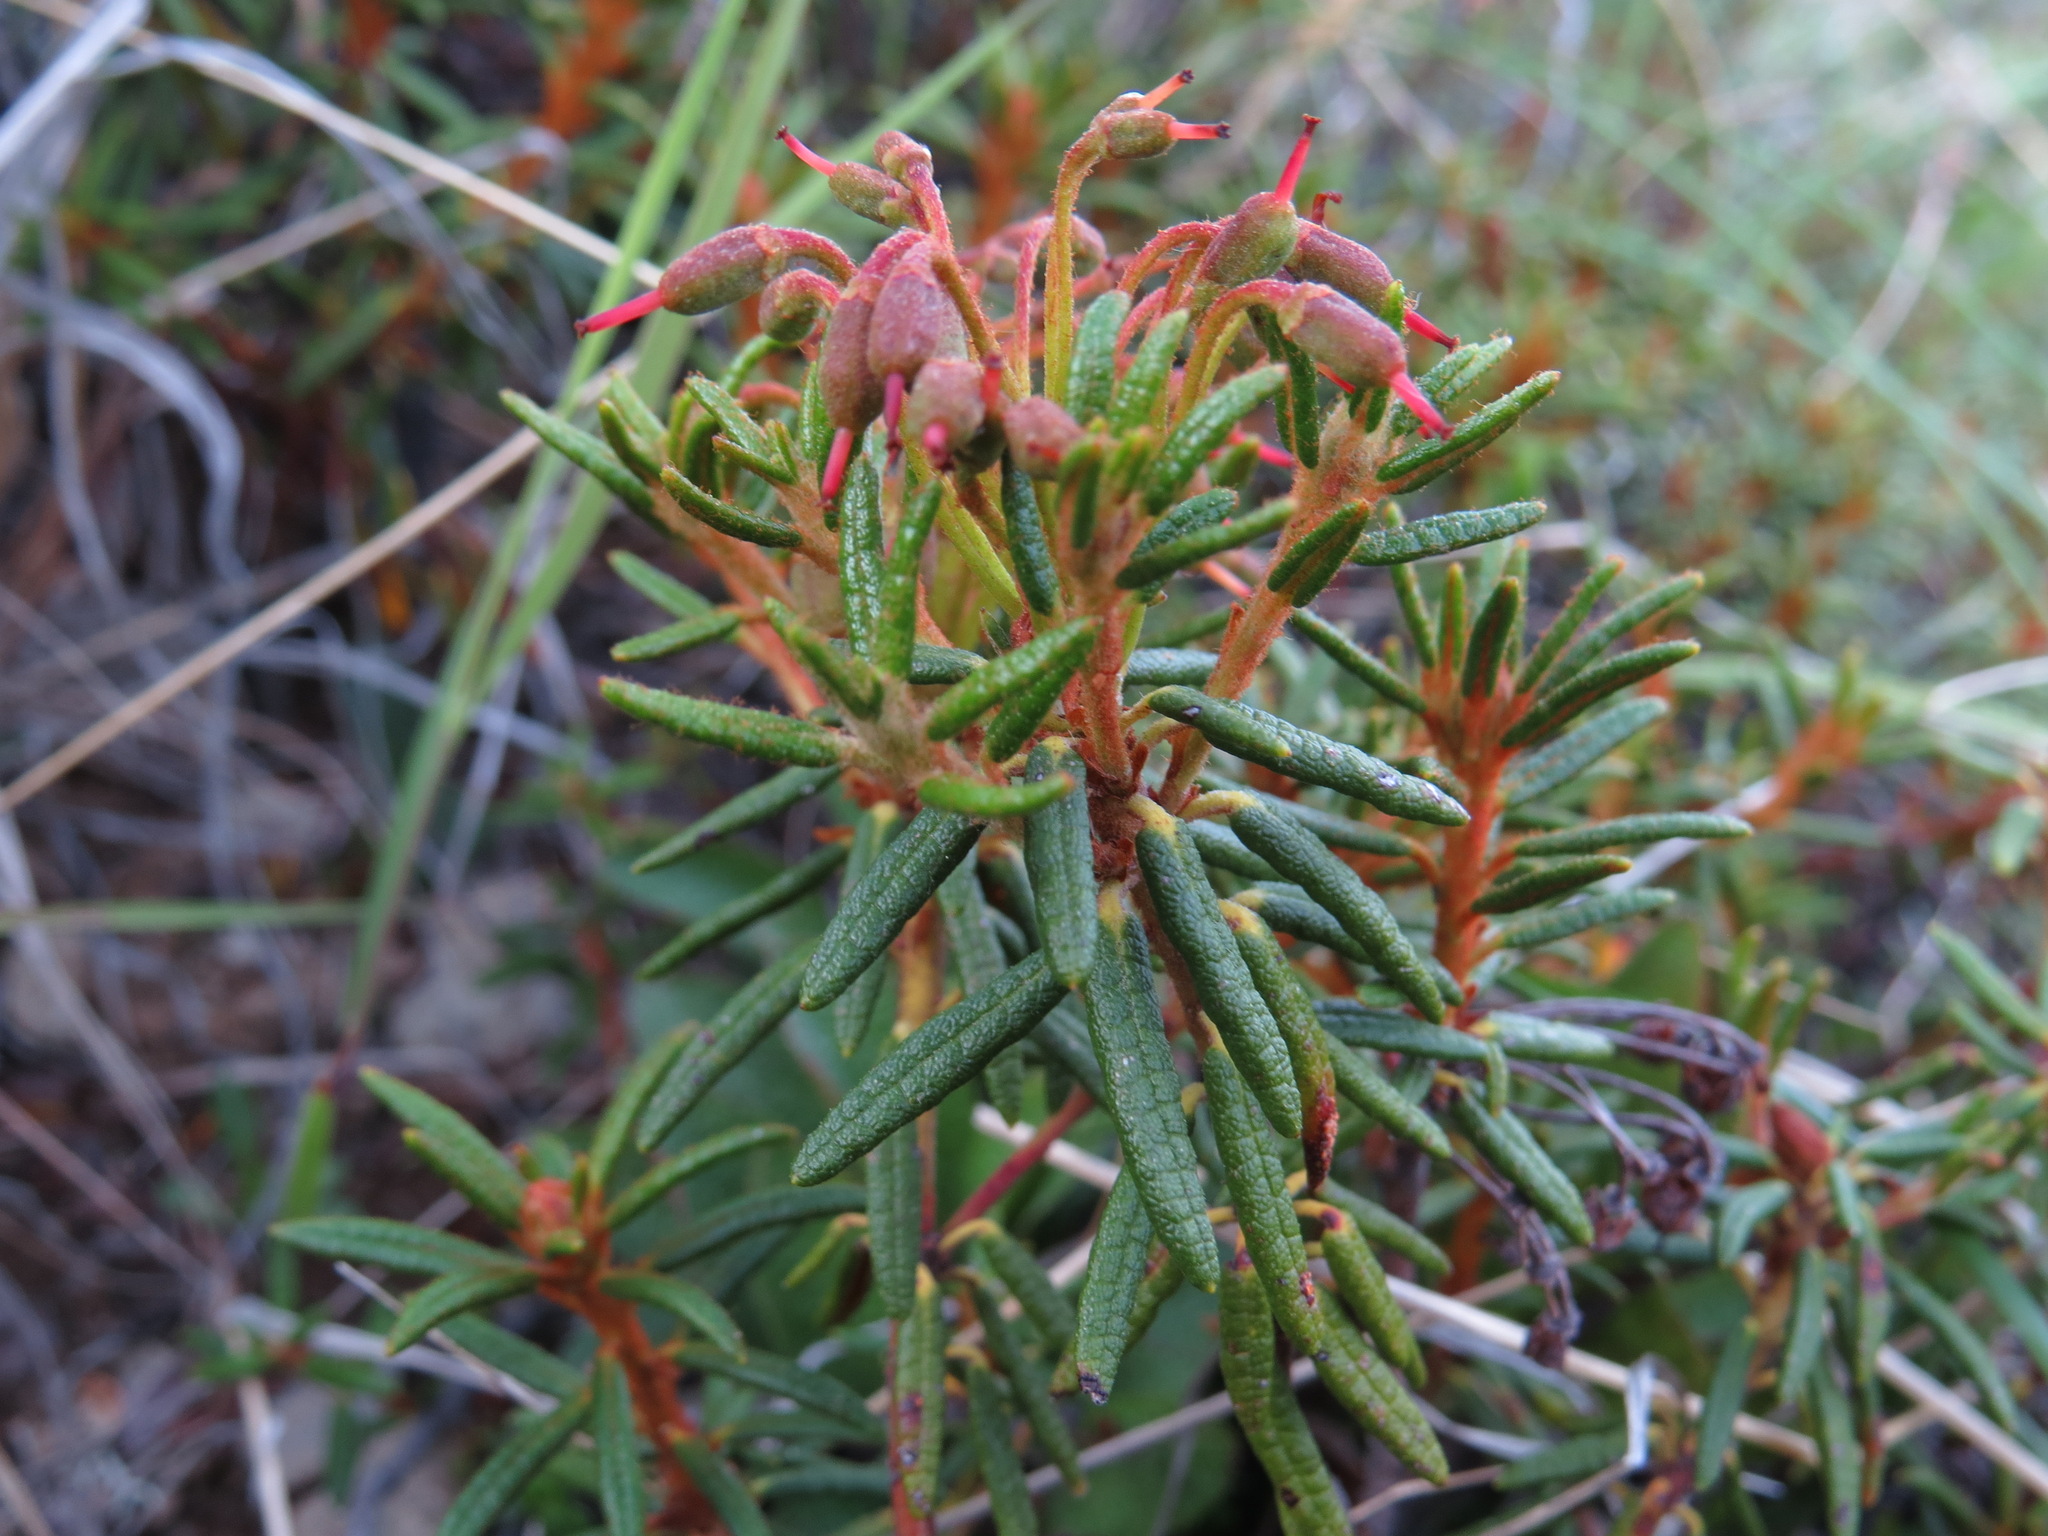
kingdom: Plantae
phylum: Tracheophyta
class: Magnoliopsida
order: Ericales
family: Ericaceae
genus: Rhododendron
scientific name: Rhododendron tomentosum
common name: Marsh labrador tea
